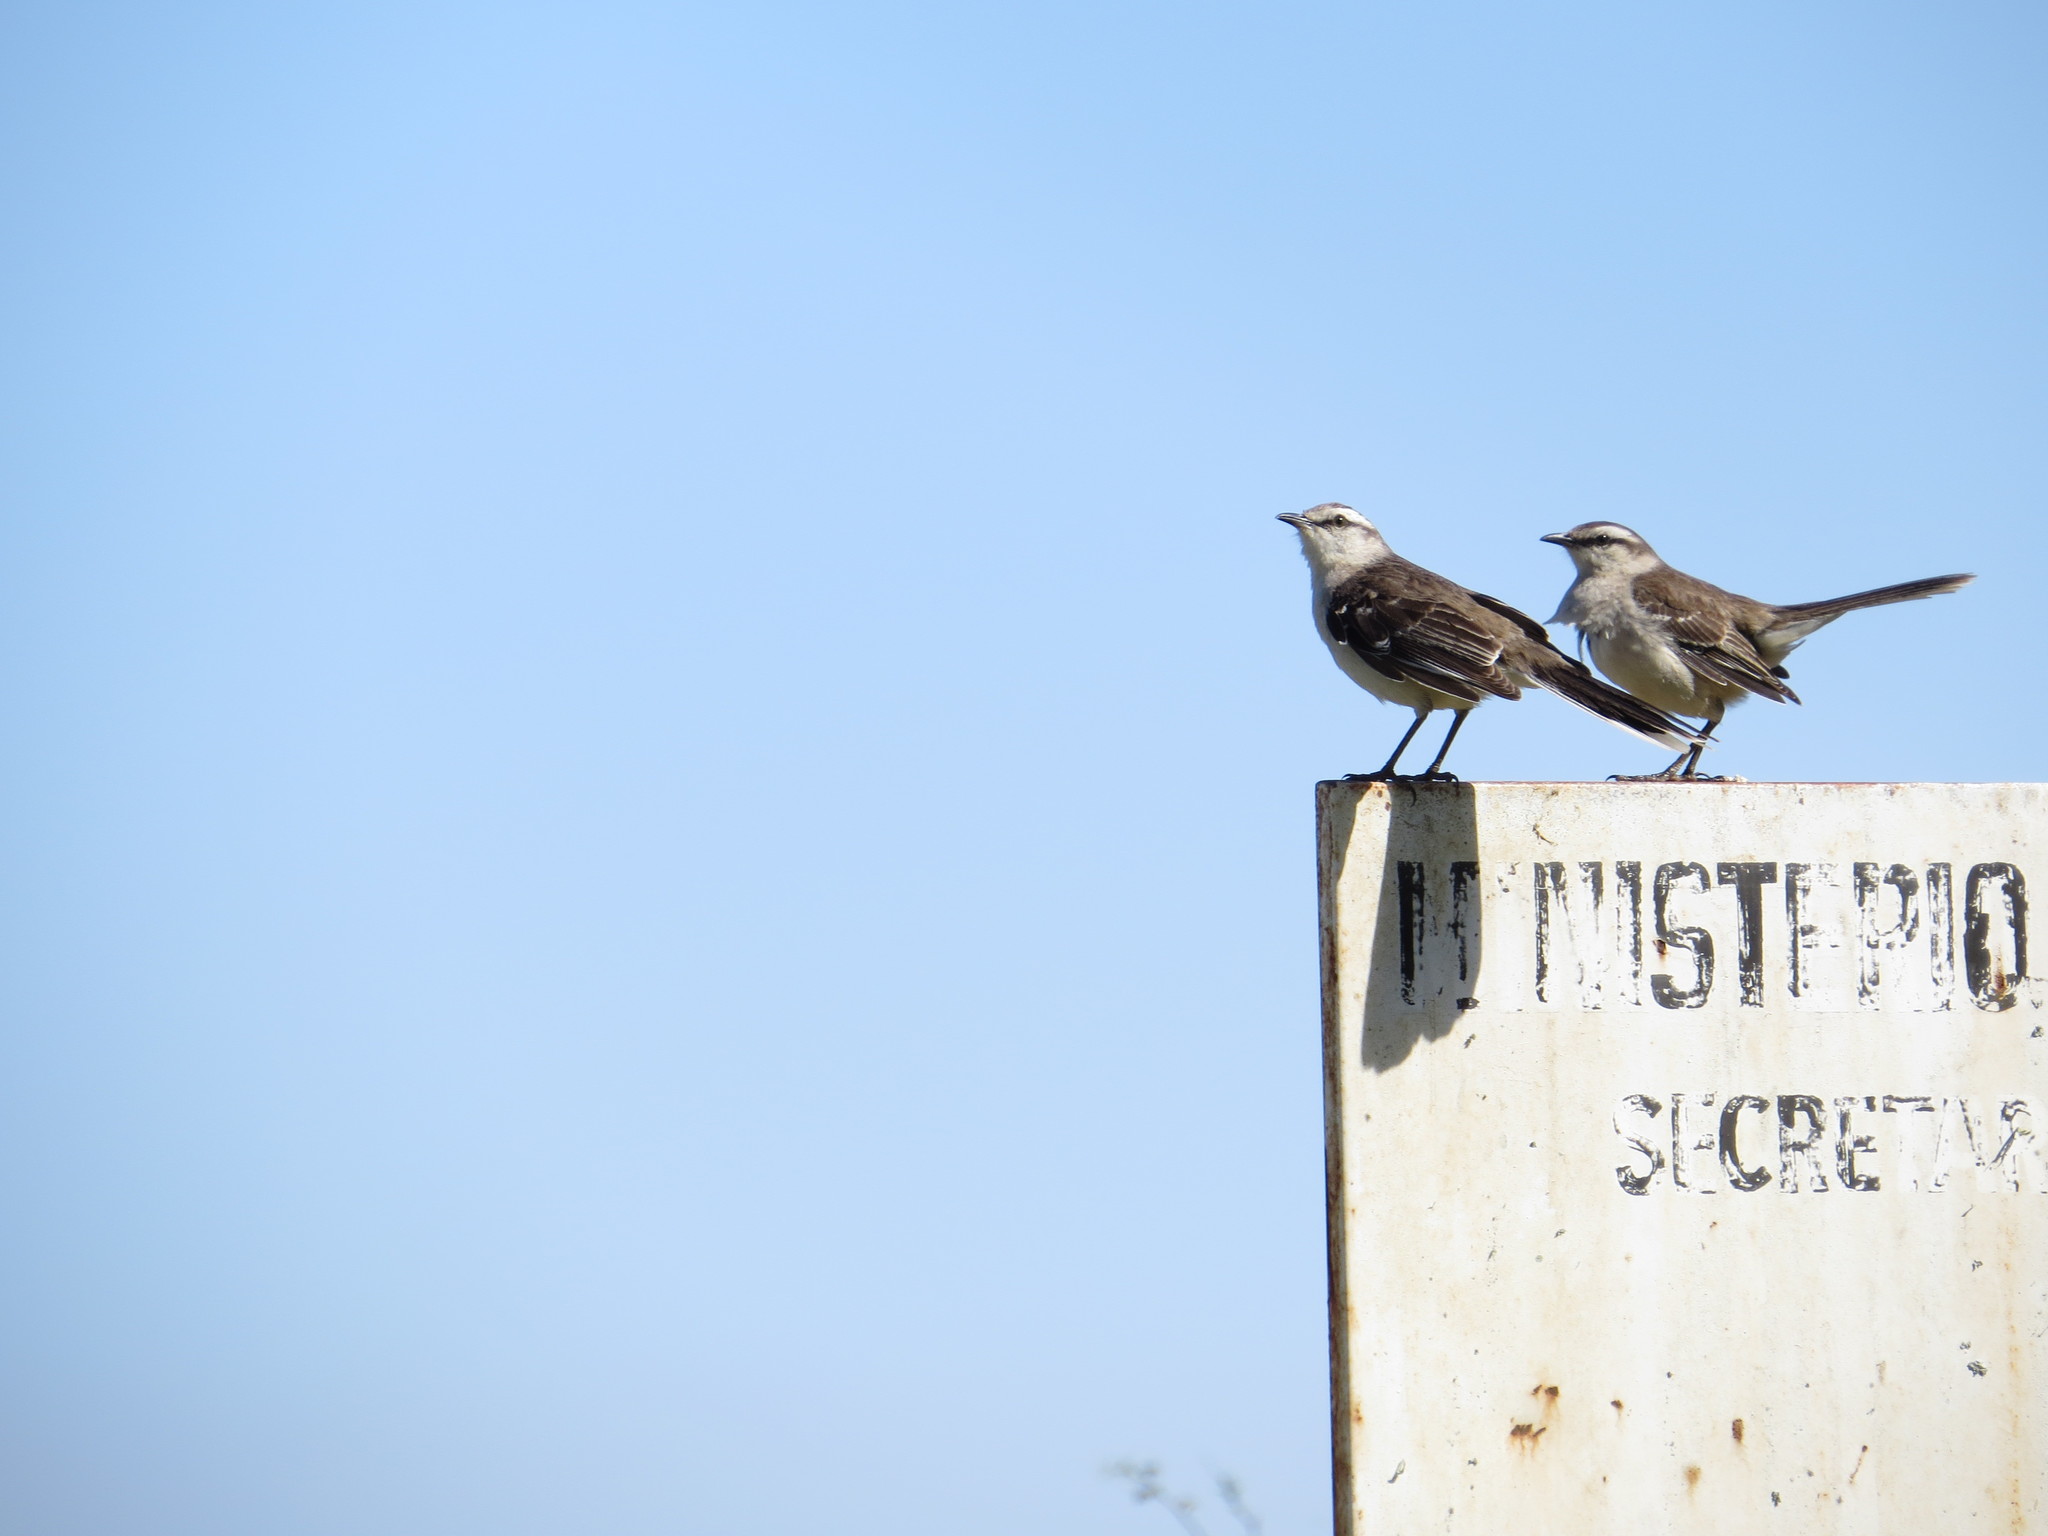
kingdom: Animalia
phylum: Chordata
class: Aves
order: Passeriformes
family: Mimidae
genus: Mimus
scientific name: Mimus saturninus
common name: Chalk-browed mockingbird
